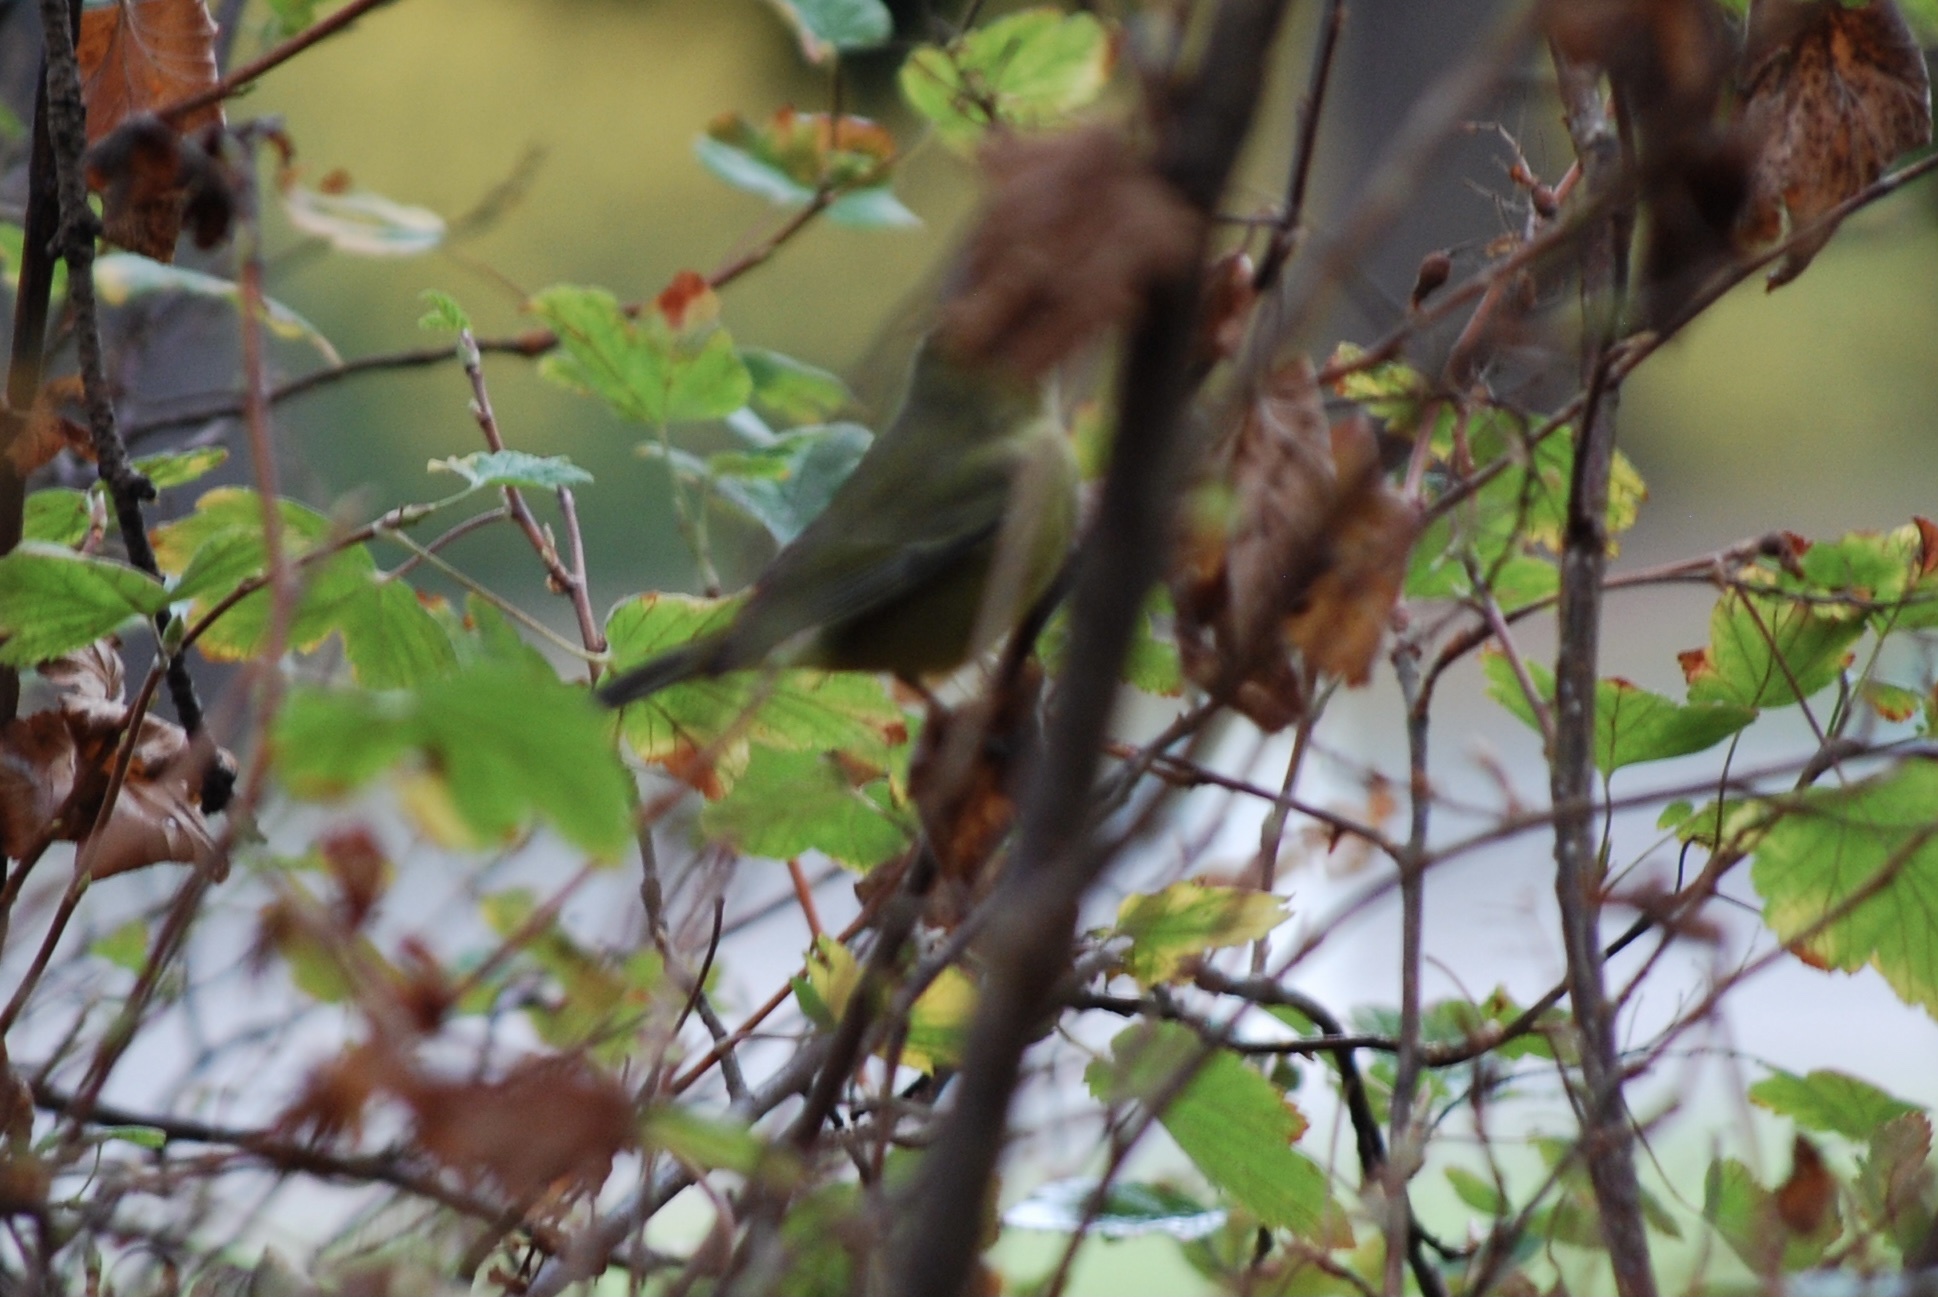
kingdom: Animalia
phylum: Chordata
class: Aves
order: Passeriformes
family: Parulidae
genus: Leiothlypis
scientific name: Leiothlypis celata
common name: Orange-crowned warbler
